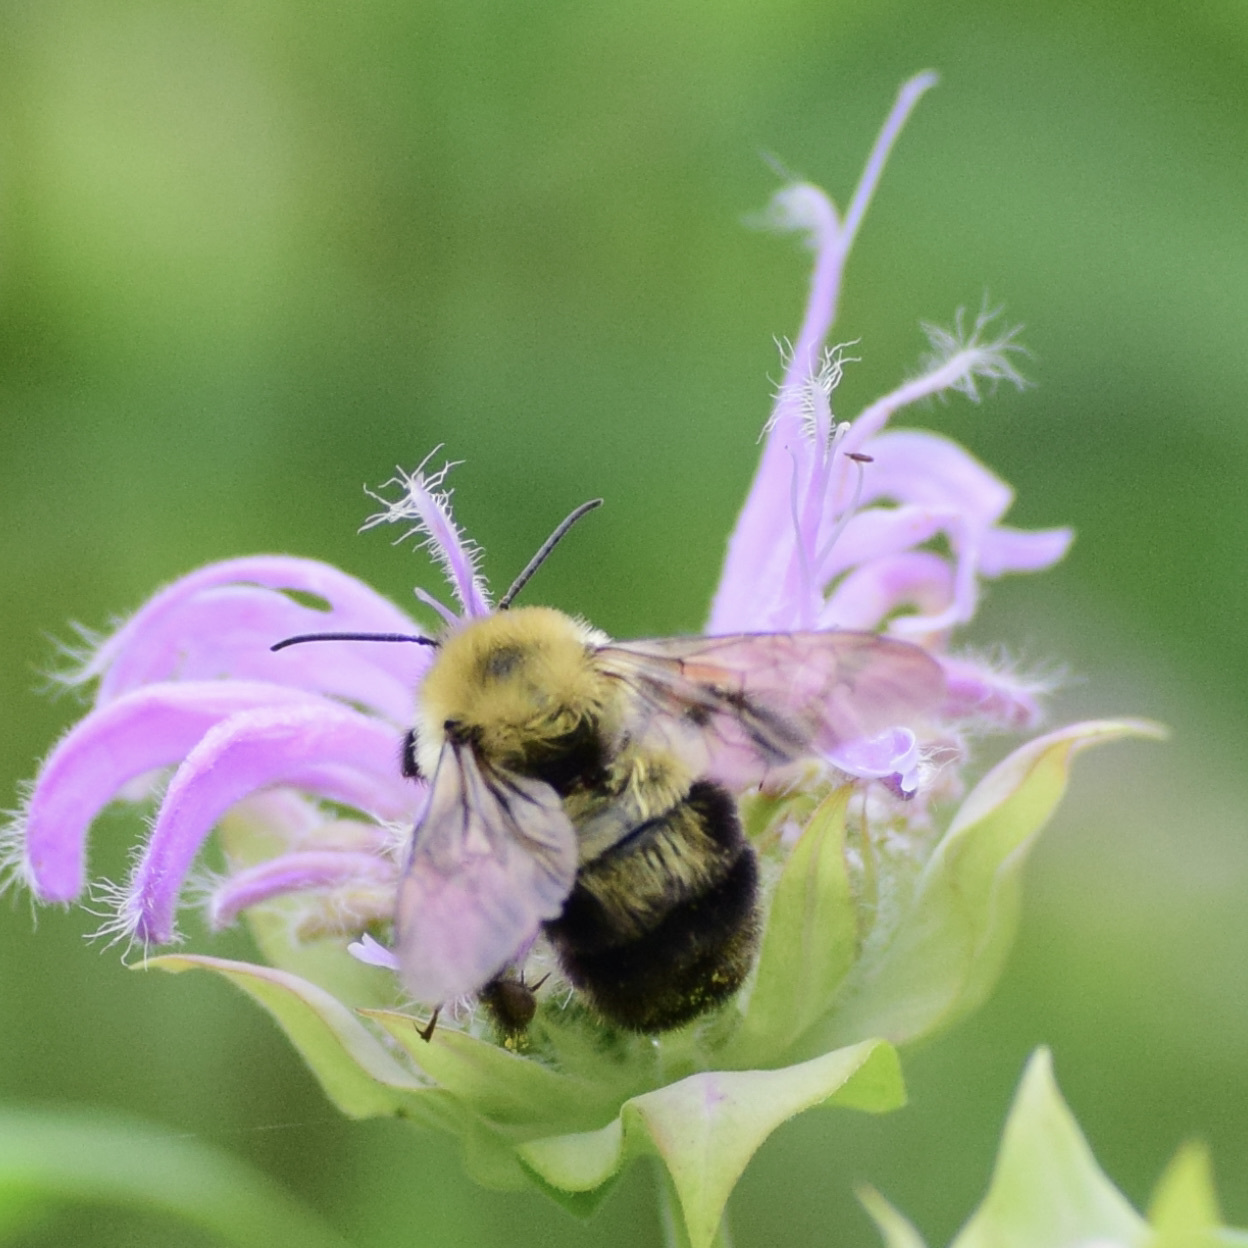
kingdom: Animalia
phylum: Arthropoda
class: Insecta
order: Hymenoptera
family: Apidae
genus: Bombus
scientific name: Bombus bimaculatus
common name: Two-spotted bumble bee
